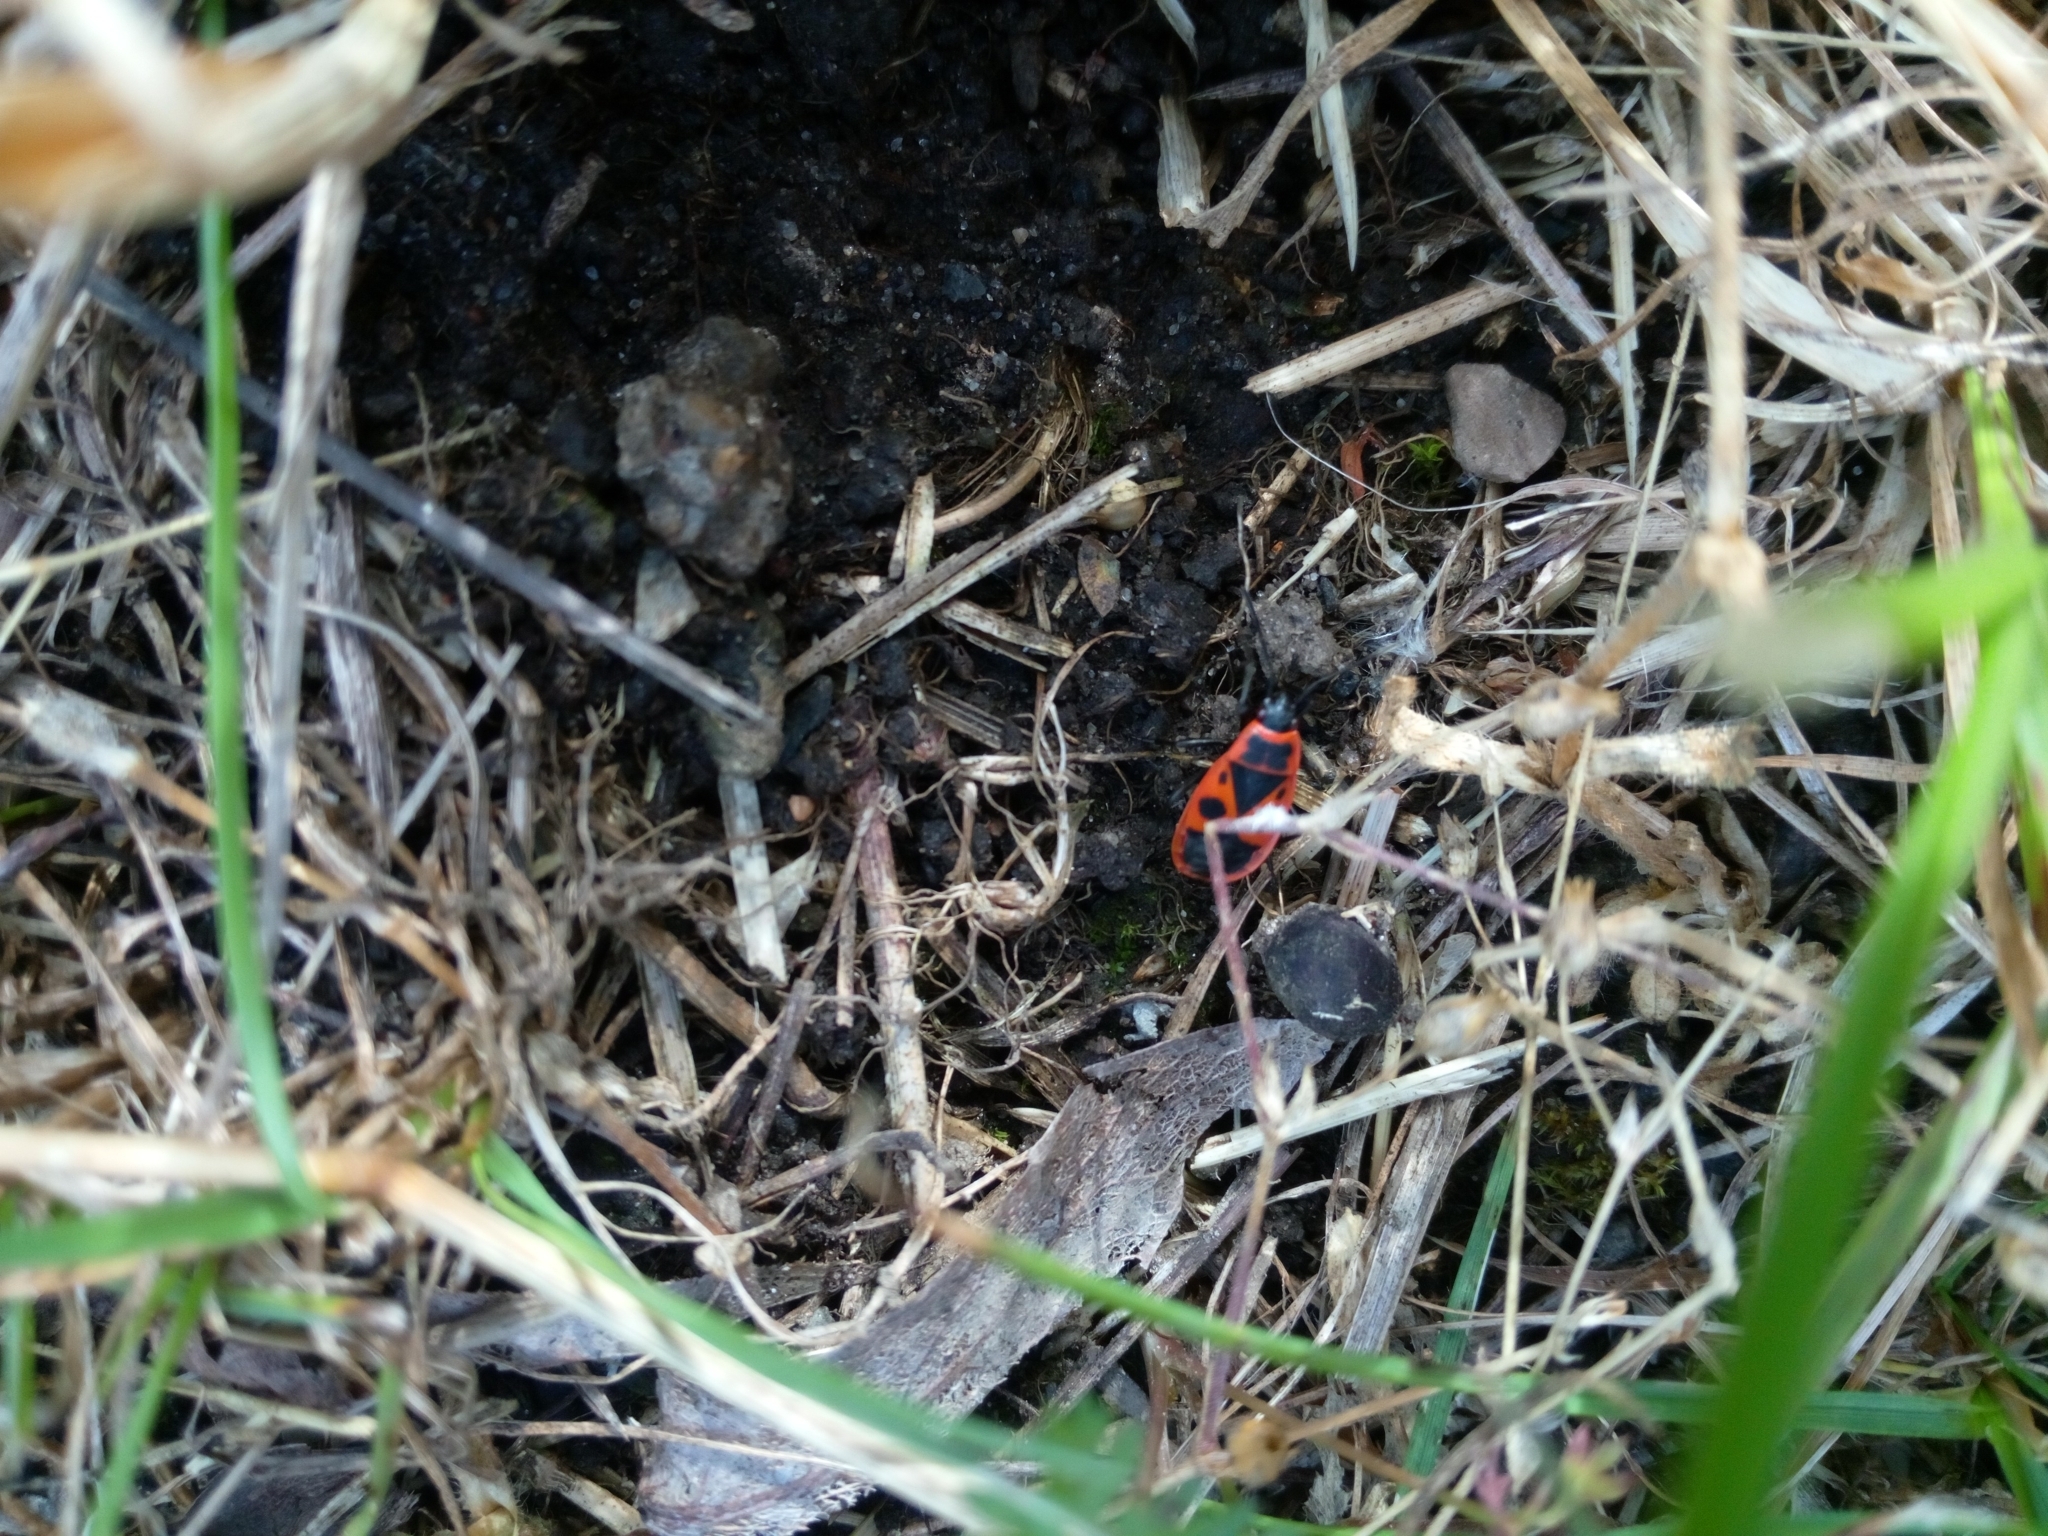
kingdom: Animalia
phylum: Arthropoda
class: Insecta
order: Hemiptera
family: Pyrrhocoridae
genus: Pyrrhocoris
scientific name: Pyrrhocoris apterus
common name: Firebug
